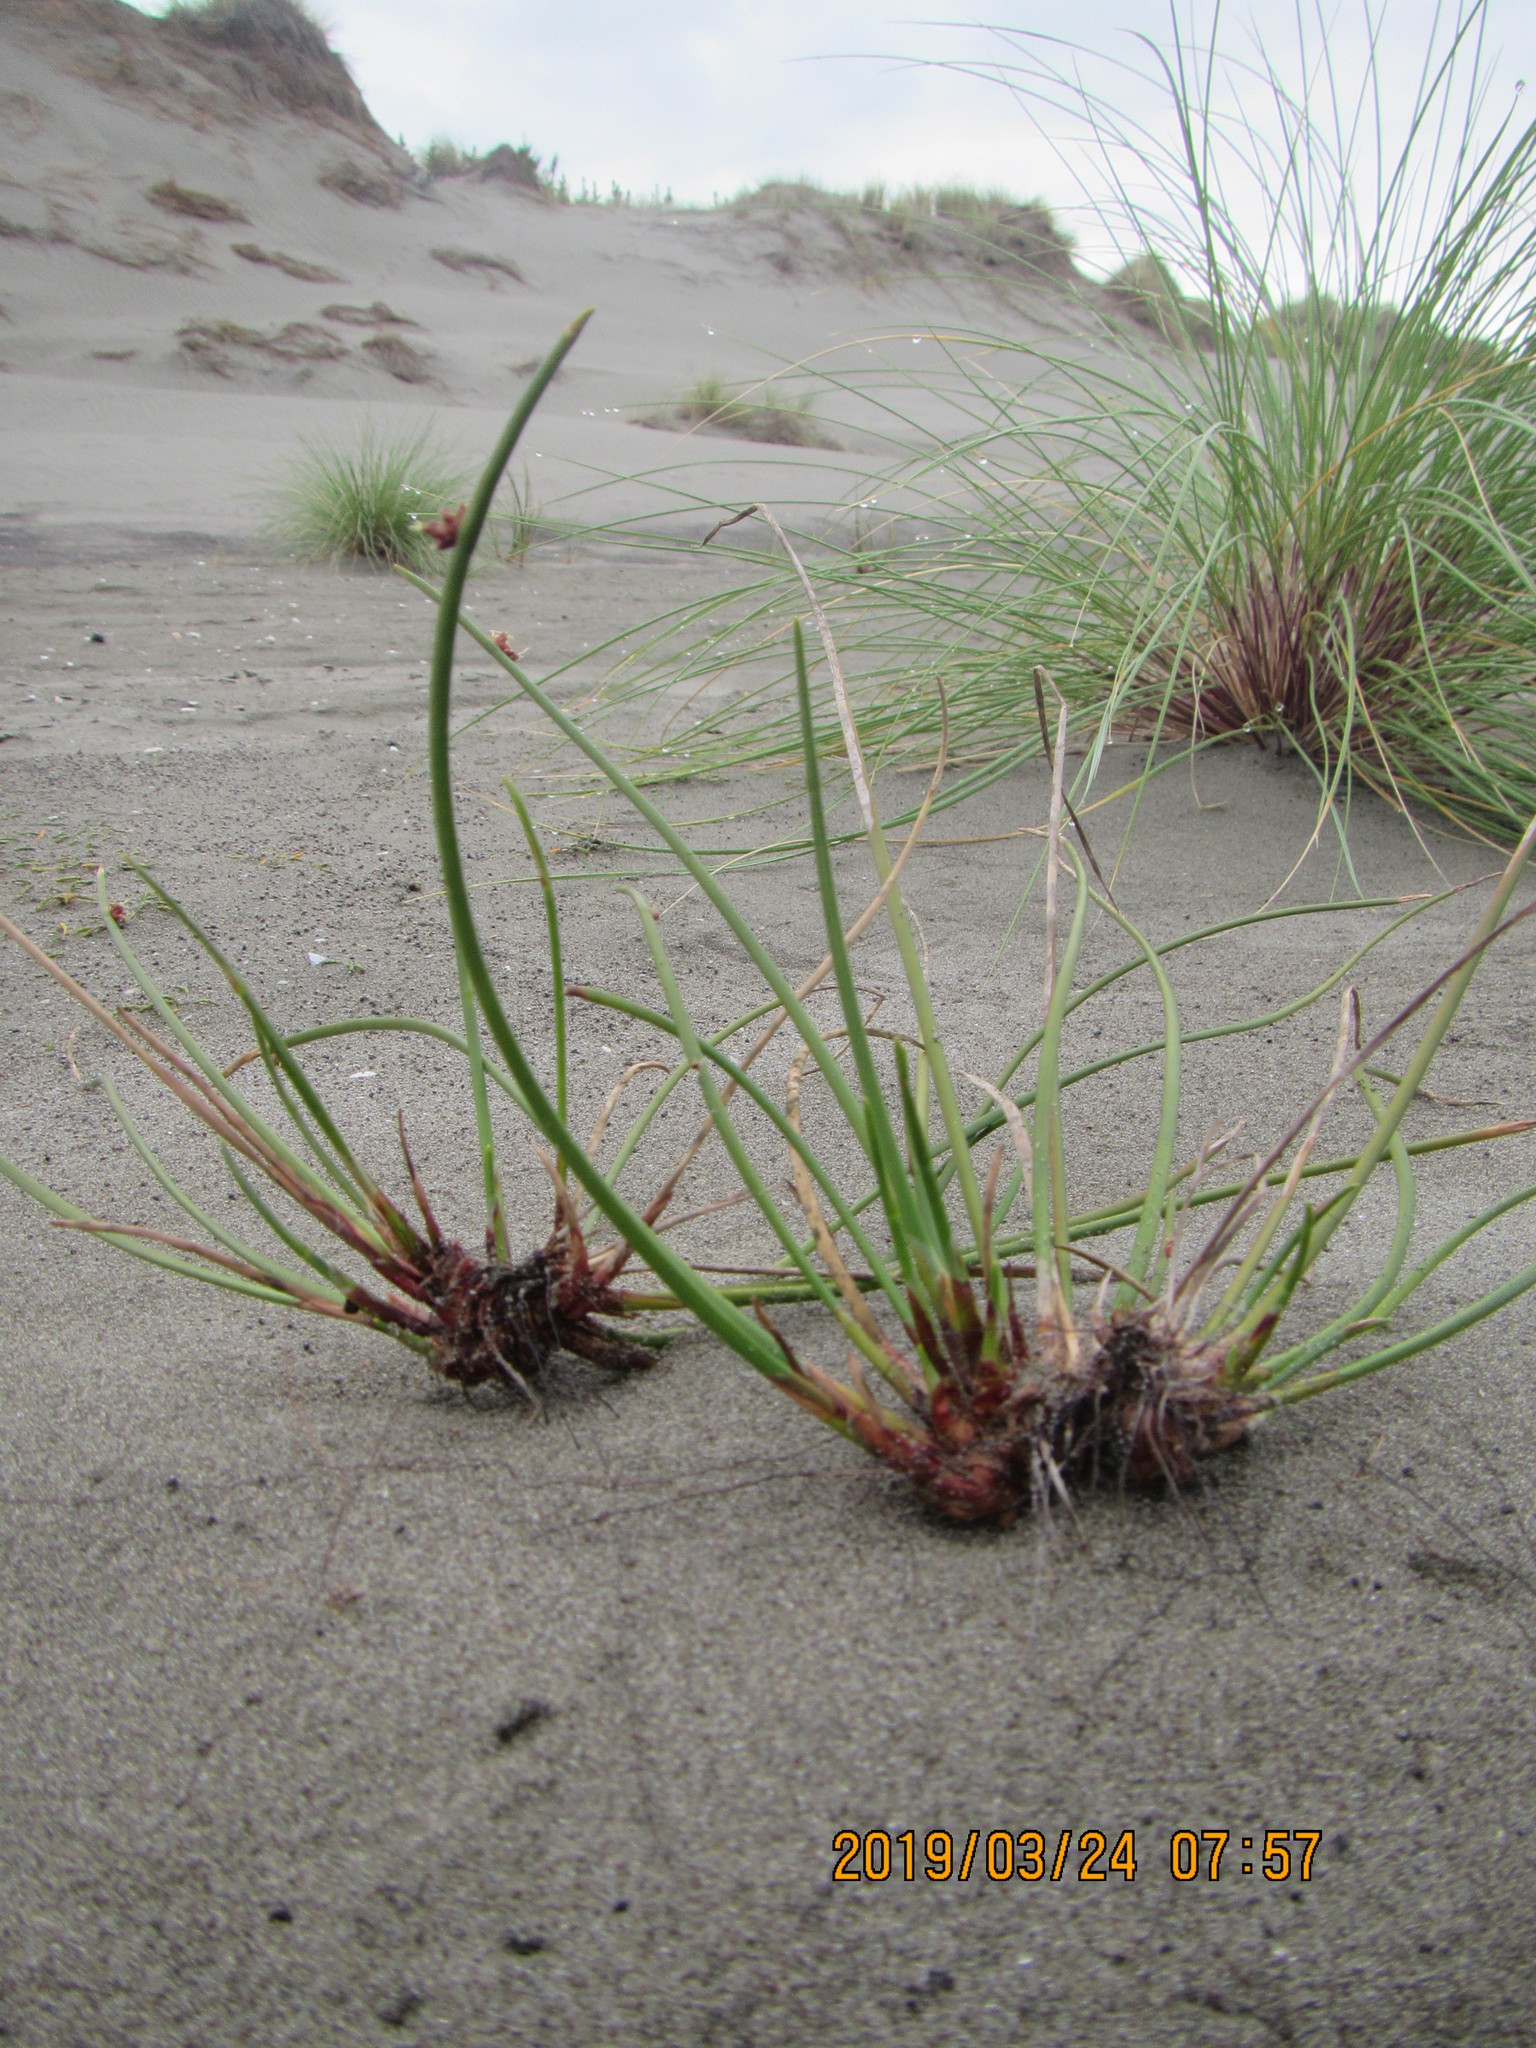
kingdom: Plantae
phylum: Tracheophyta
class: Liliopsida
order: Poales
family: Cyperaceae
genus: Ficinia
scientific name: Ficinia nodosa
